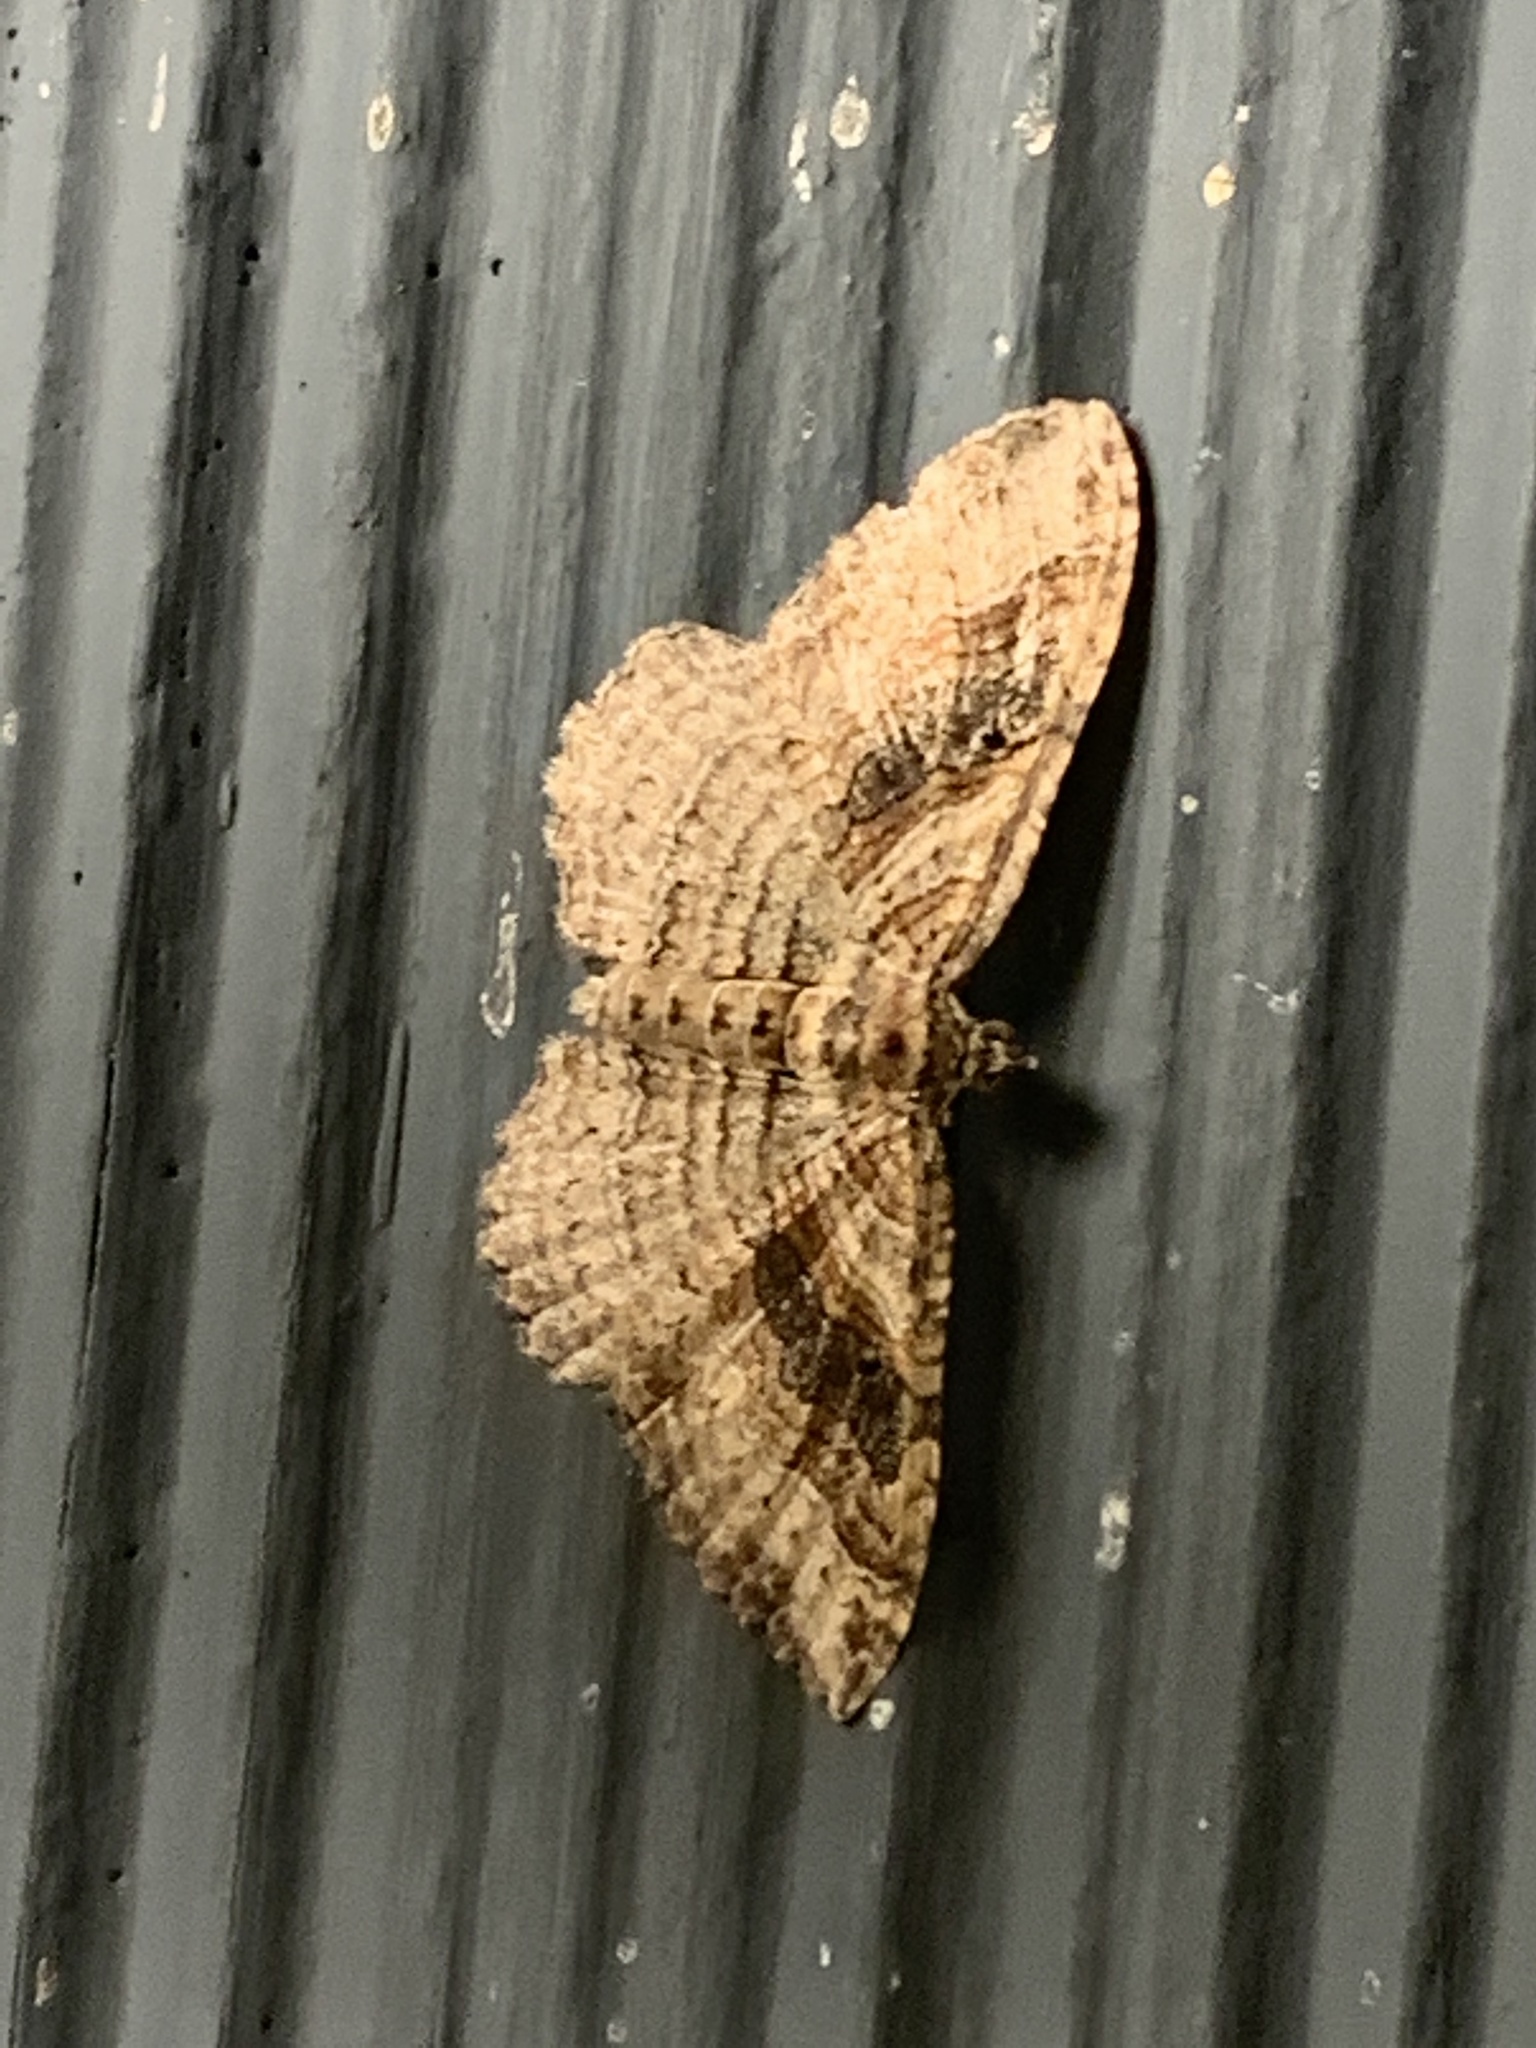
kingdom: Animalia
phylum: Arthropoda
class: Insecta
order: Lepidoptera
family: Geometridae
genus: Costaconvexa
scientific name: Costaconvexa centrostrigaria
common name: Bent-line carpet
